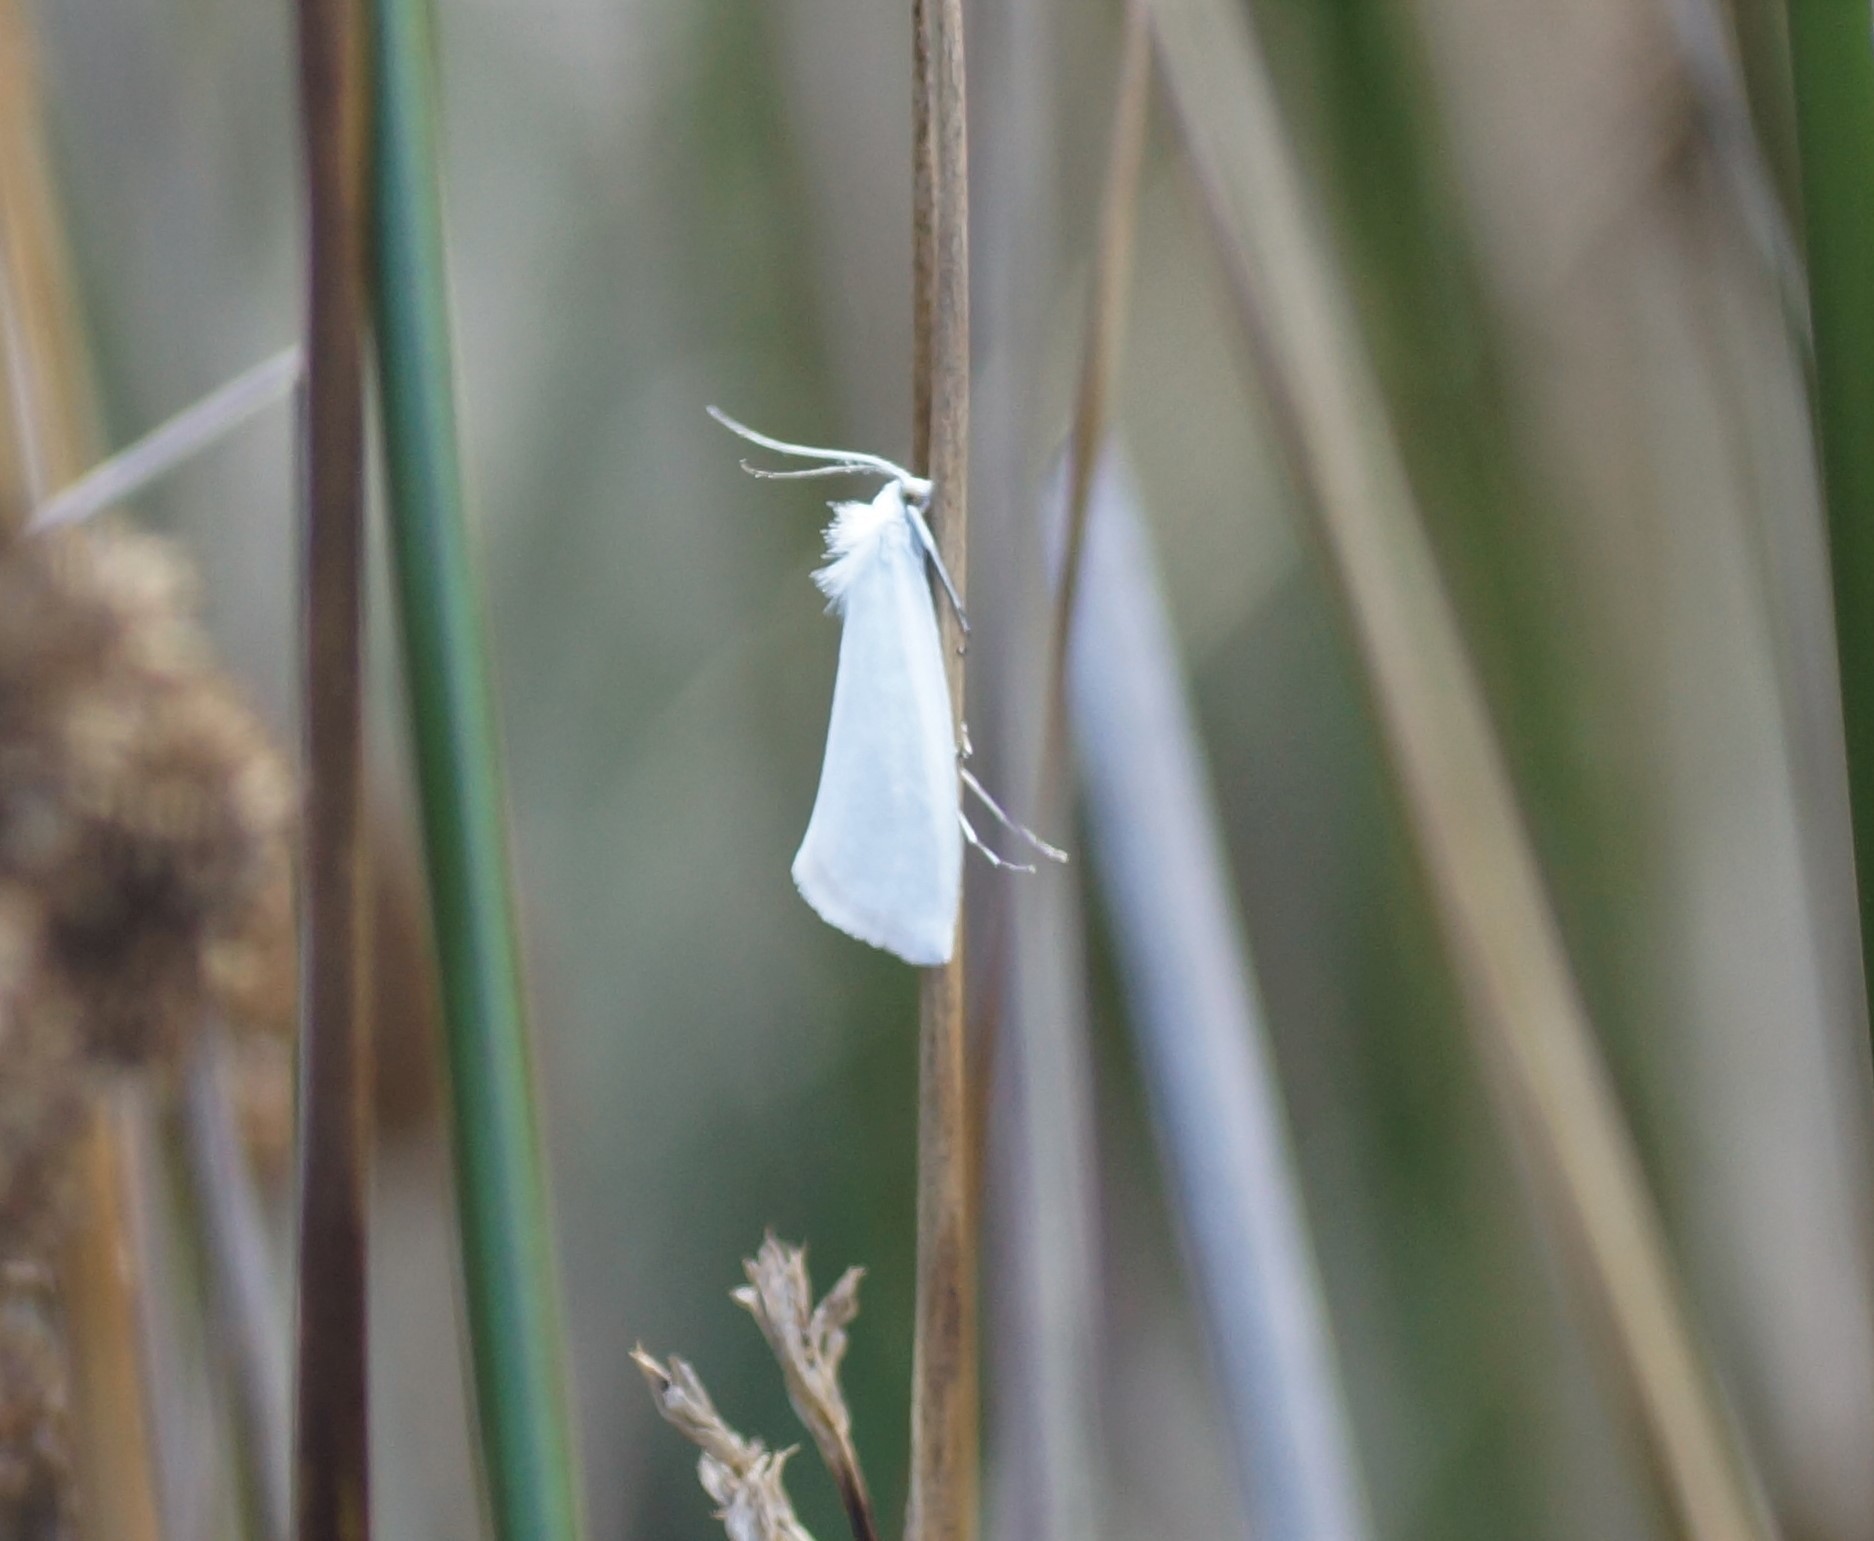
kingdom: Animalia
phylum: Arthropoda
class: Insecta
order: Lepidoptera
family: Crambidae
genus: Tipanaea
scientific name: Tipanaea patulella
